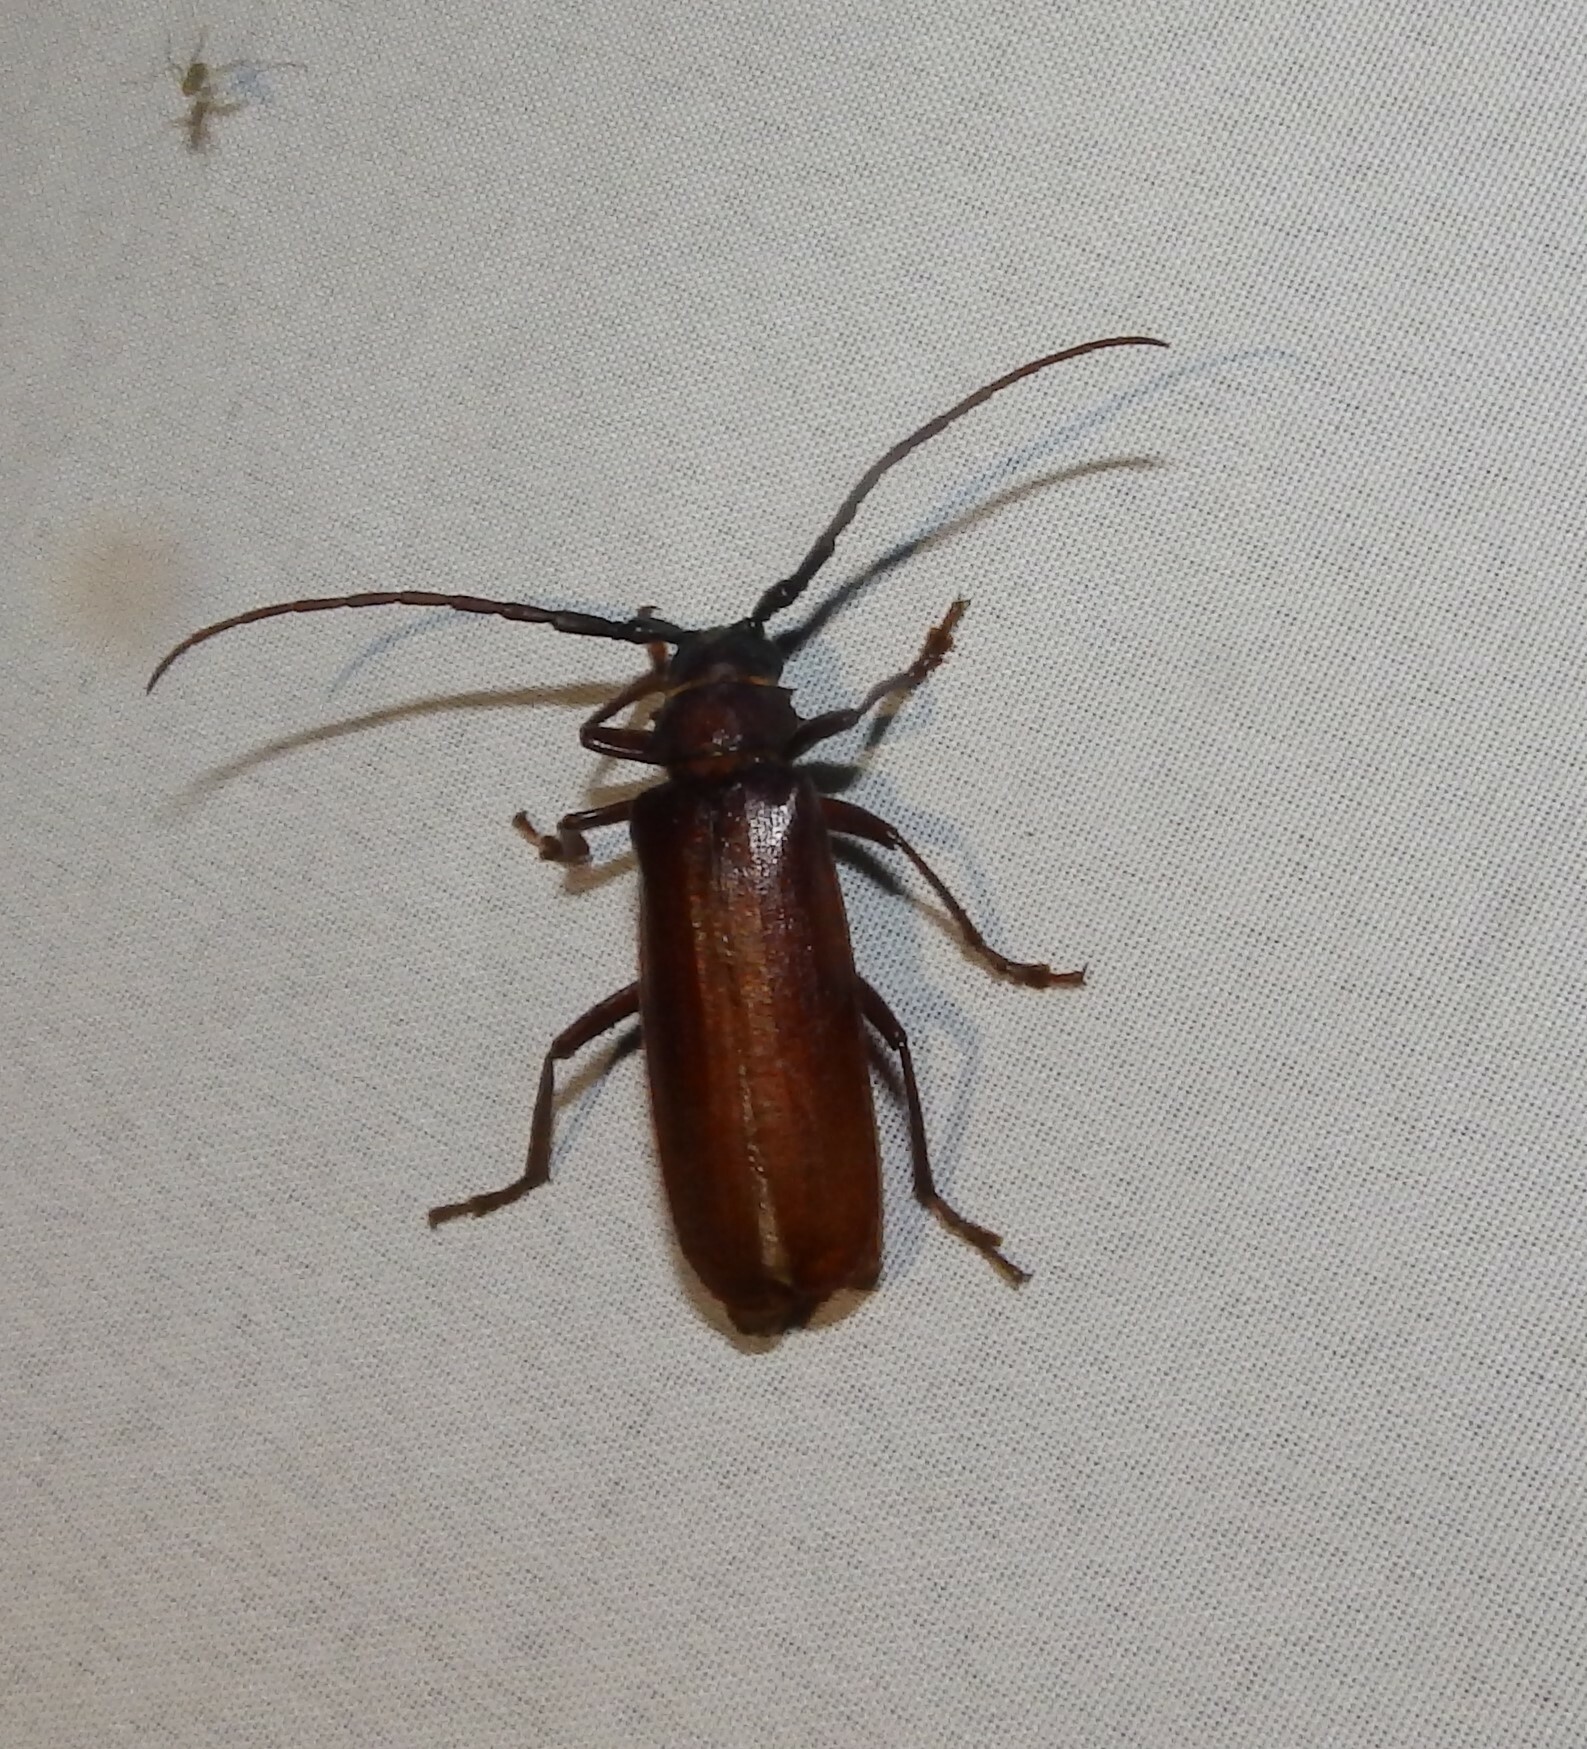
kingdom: Animalia
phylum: Arthropoda
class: Insecta
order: Coleoptera
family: Cerambycidae
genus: Orthosoma
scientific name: Orthosoma brunneum
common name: Brown prionid beetle
